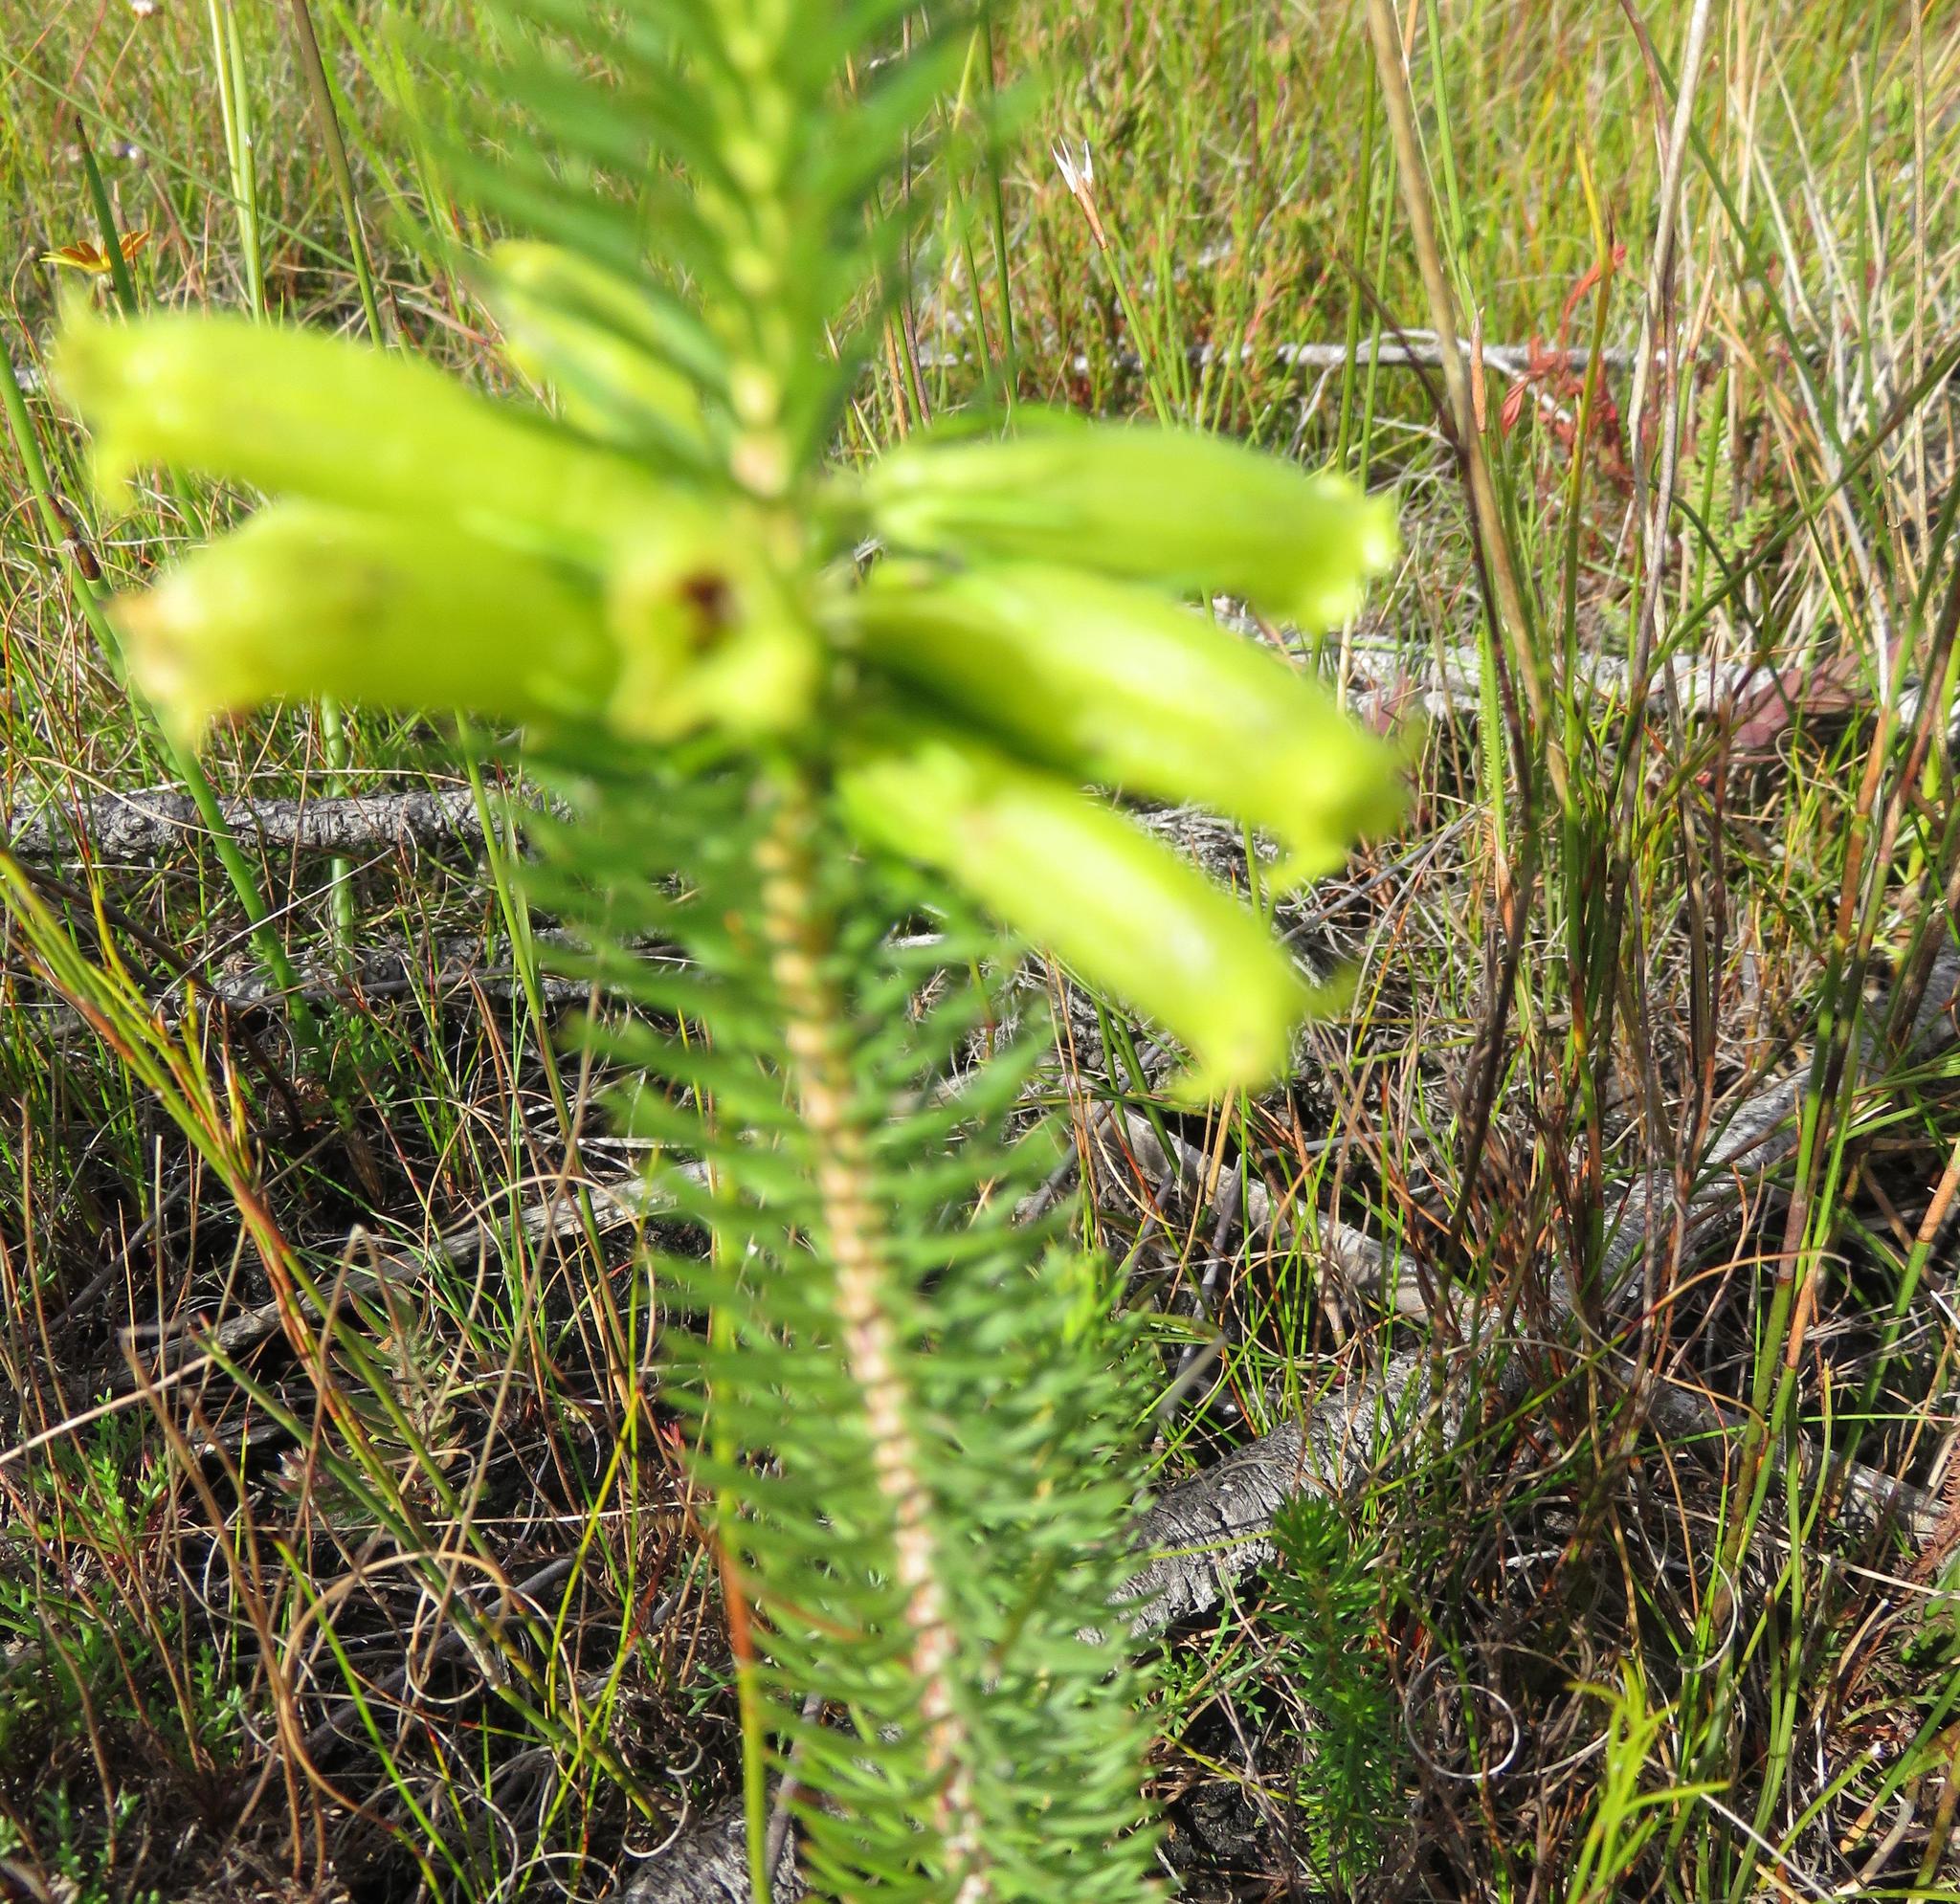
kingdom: Plantae
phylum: Tracheophyta
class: Magnoliopsida
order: Ericales
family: Ericaceae
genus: Erica
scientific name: Erica viscaria
